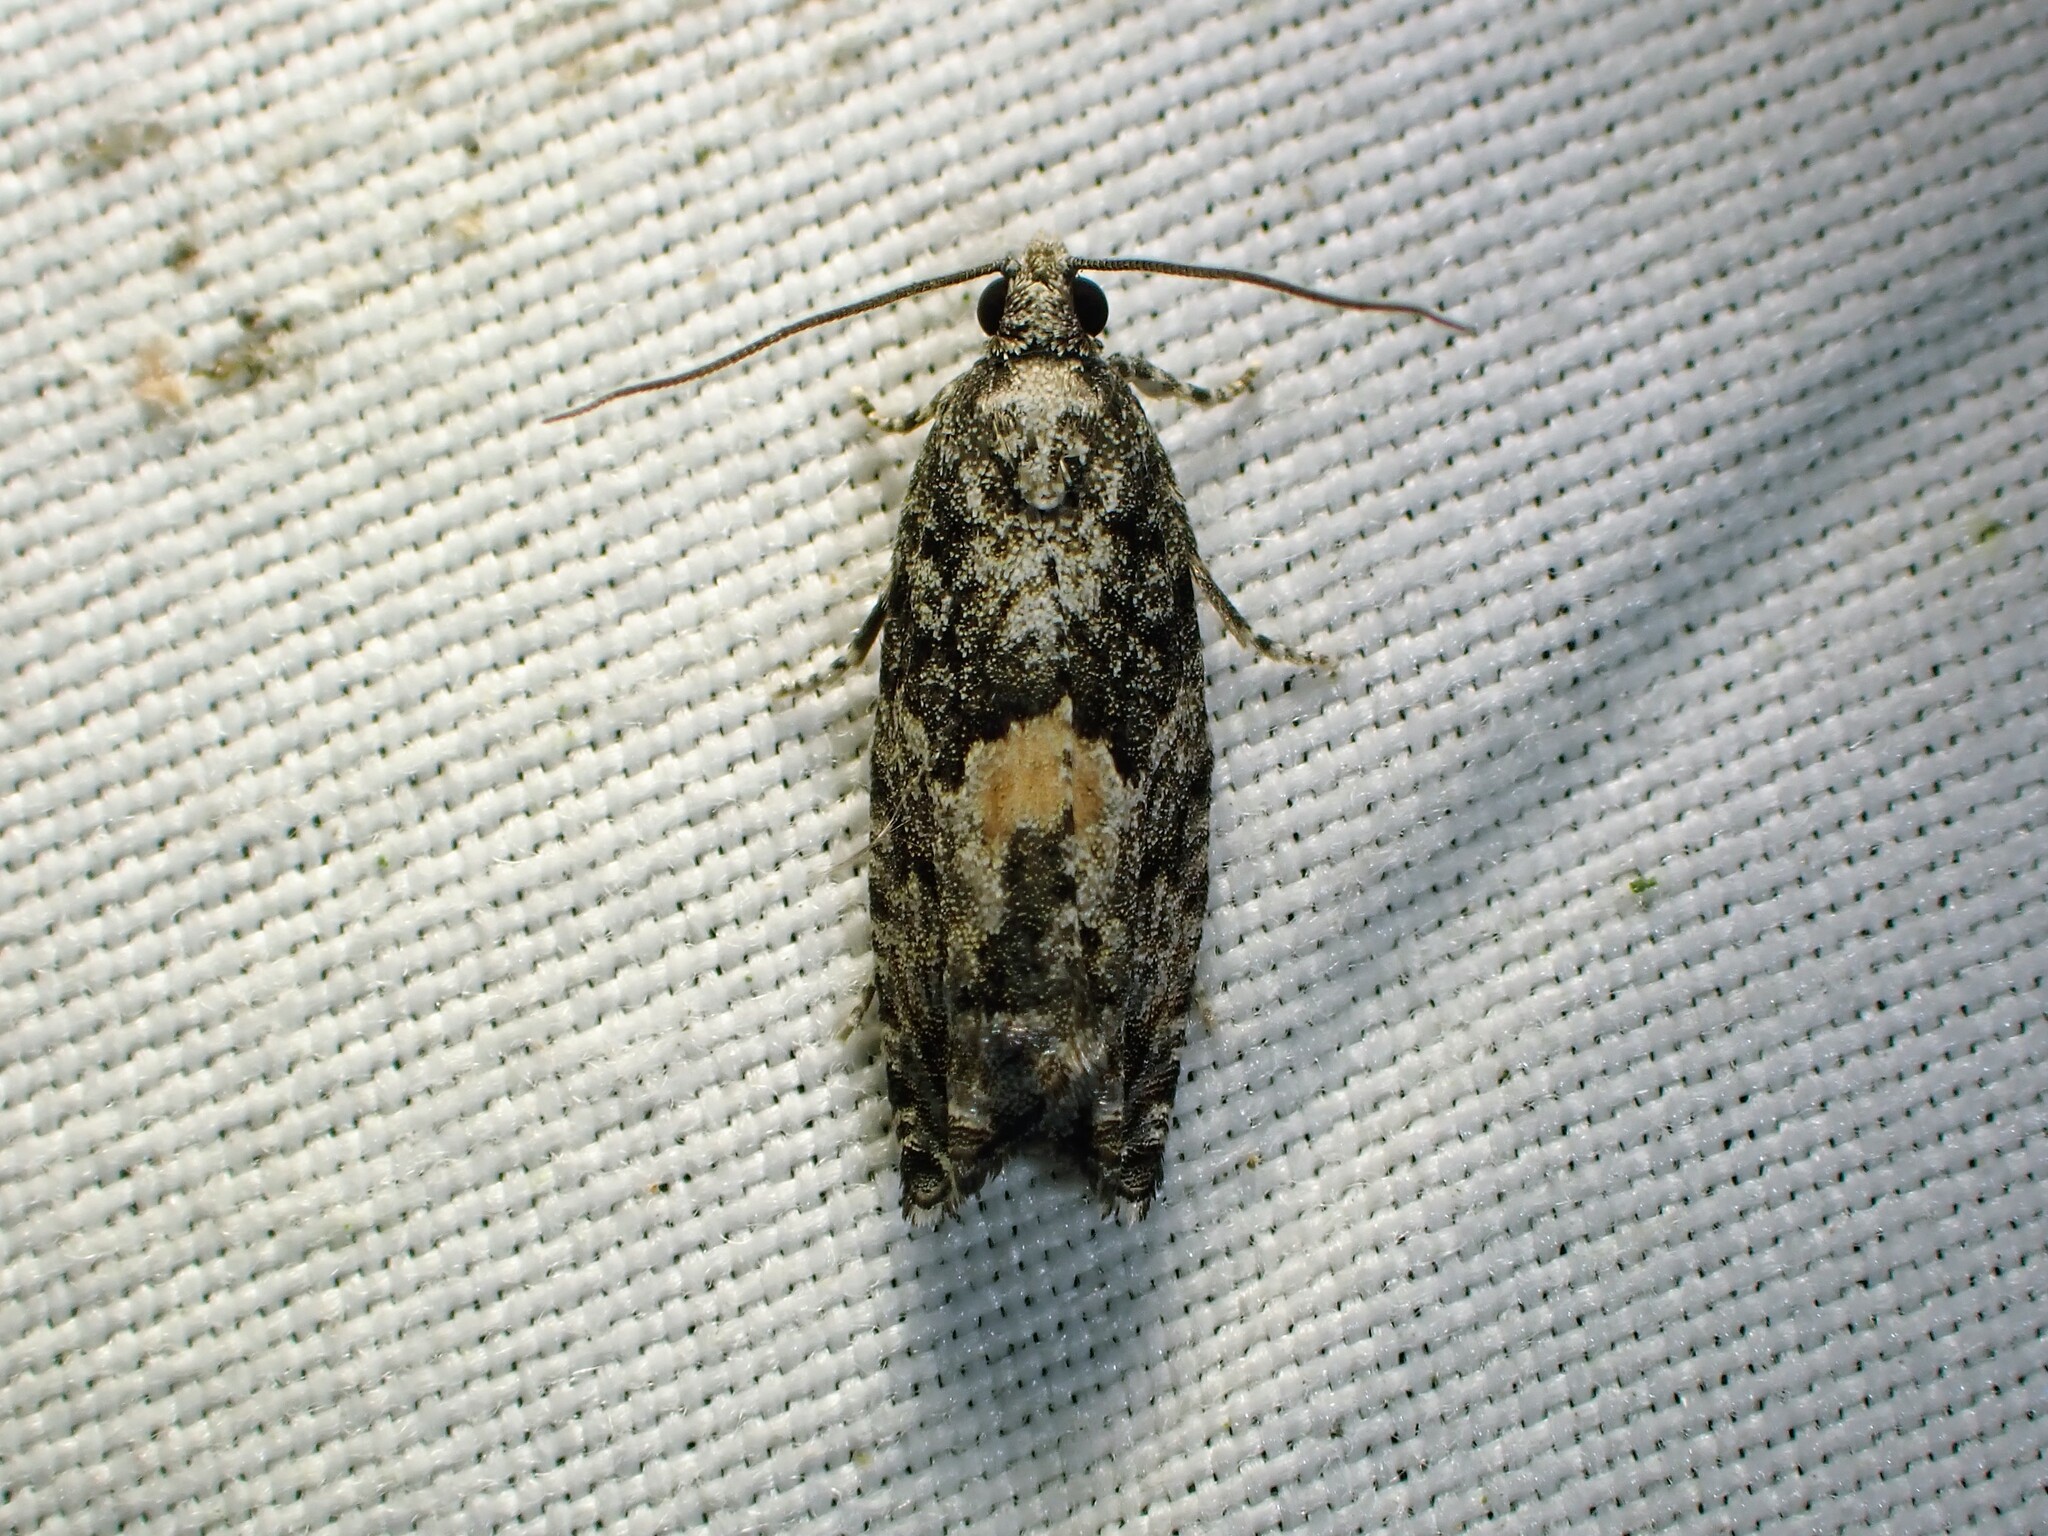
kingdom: Animalia
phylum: Arthropoda
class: Insecta
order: Lepidoptera
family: Tortricidae
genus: Epinotia
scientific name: Epinotia nisella
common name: Grey poplar bell
